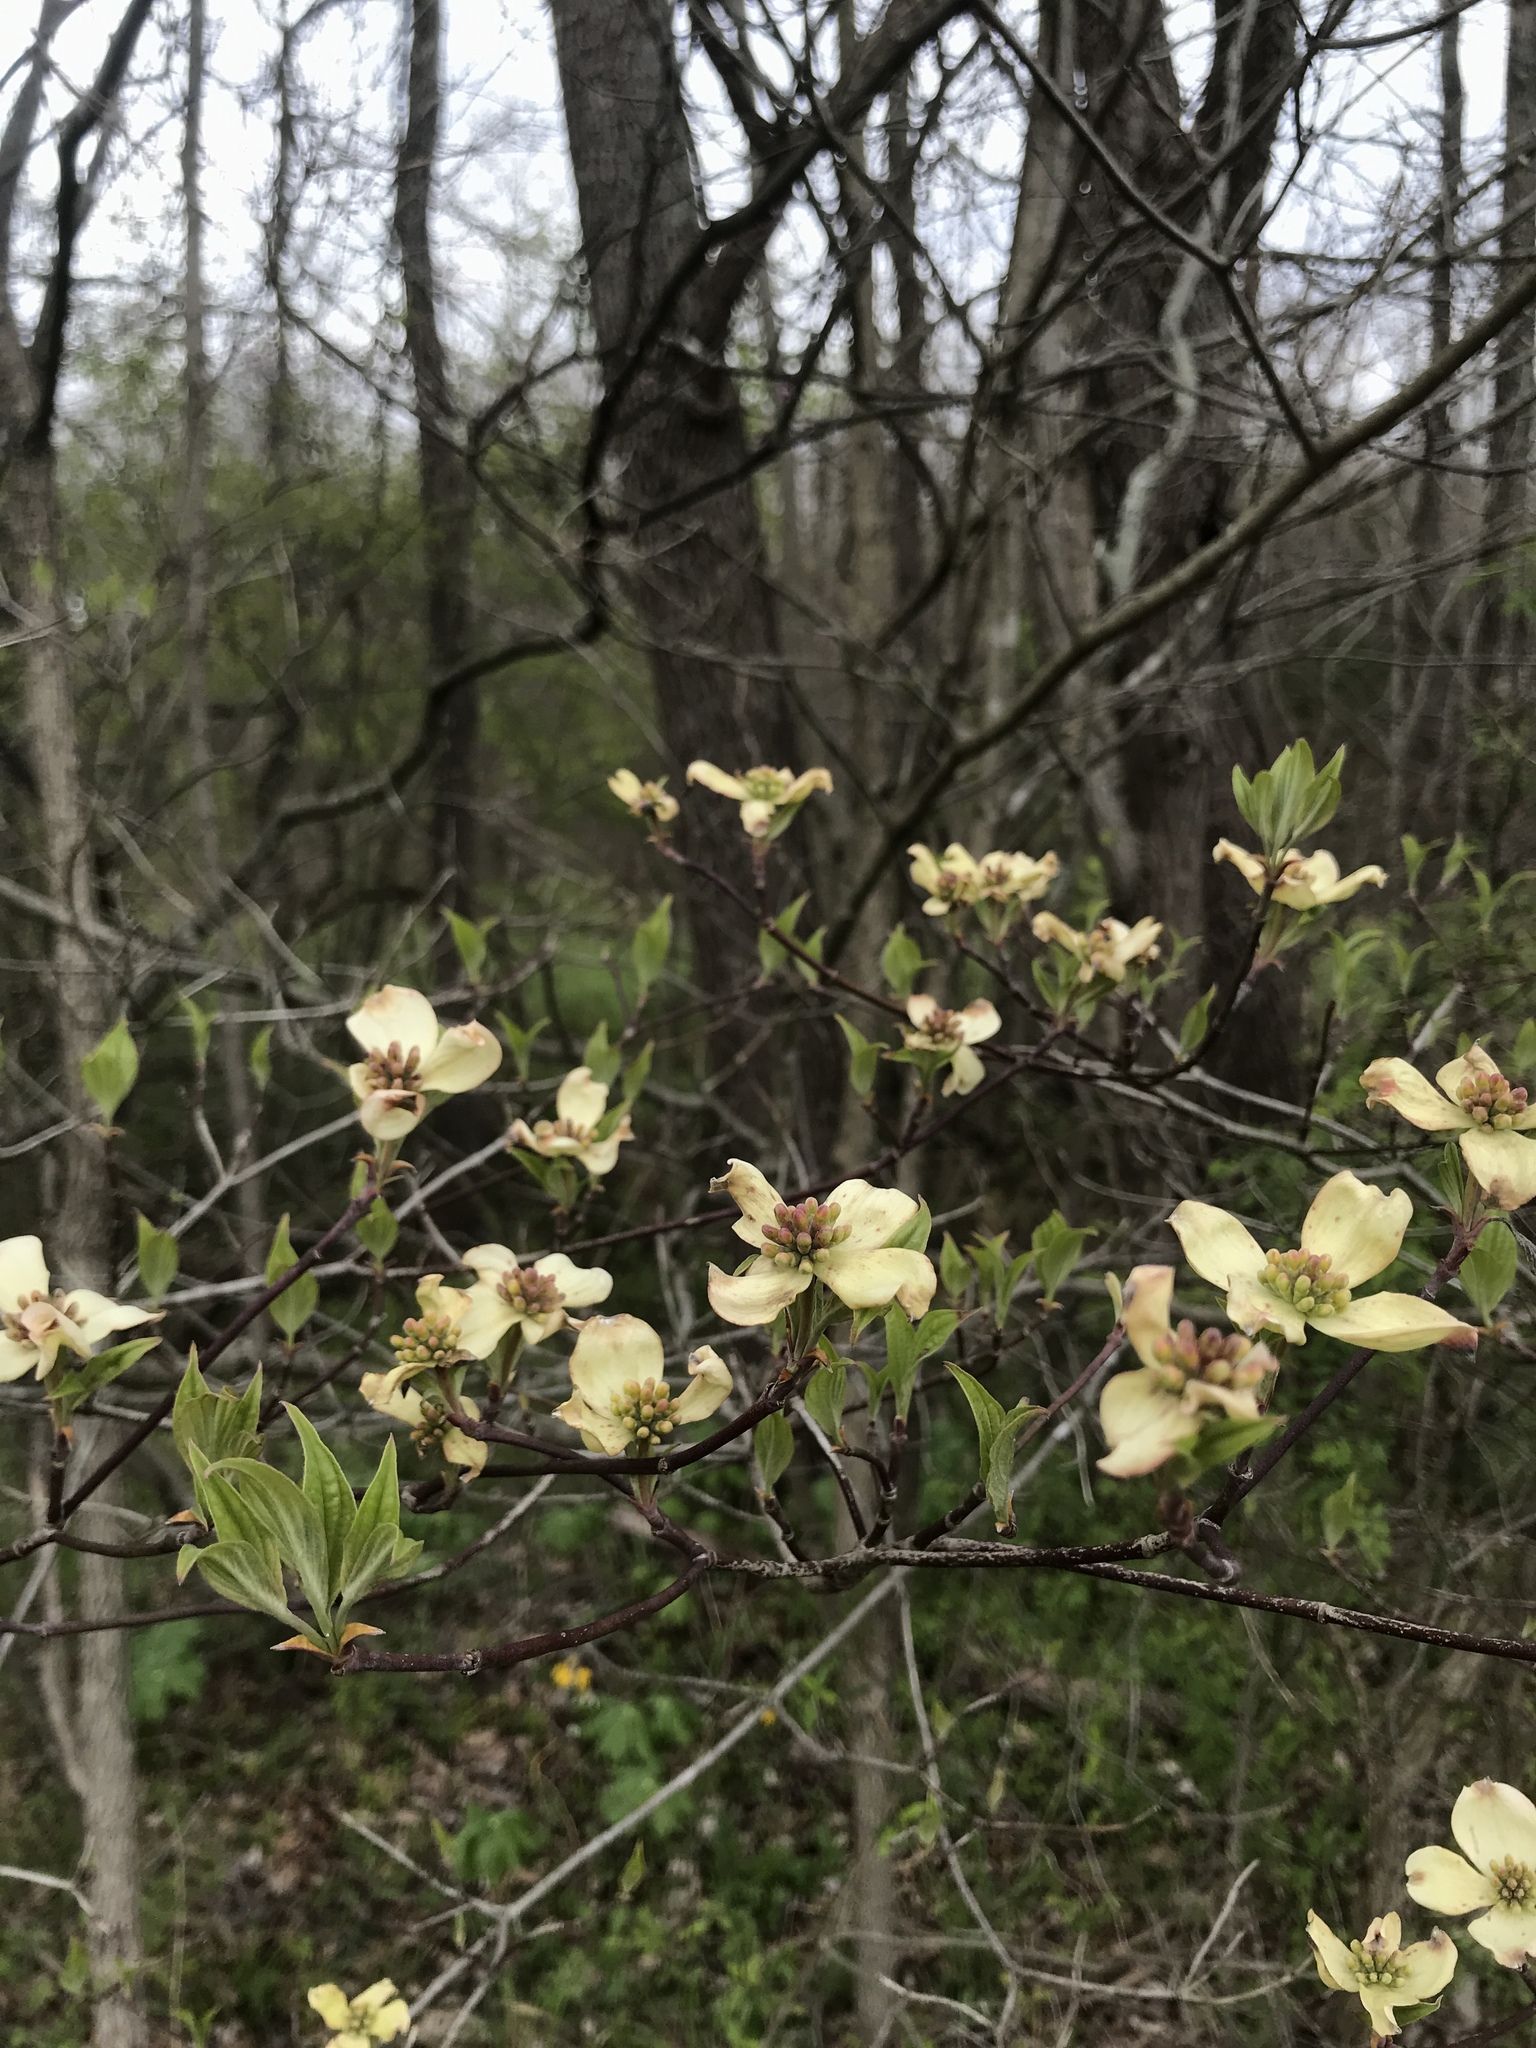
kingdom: Plantae
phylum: Tracheophyta
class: Magnoliopsida
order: Cornales
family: Cornaceae
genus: Cornus
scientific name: Cornus florida
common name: Flowering dogwood
